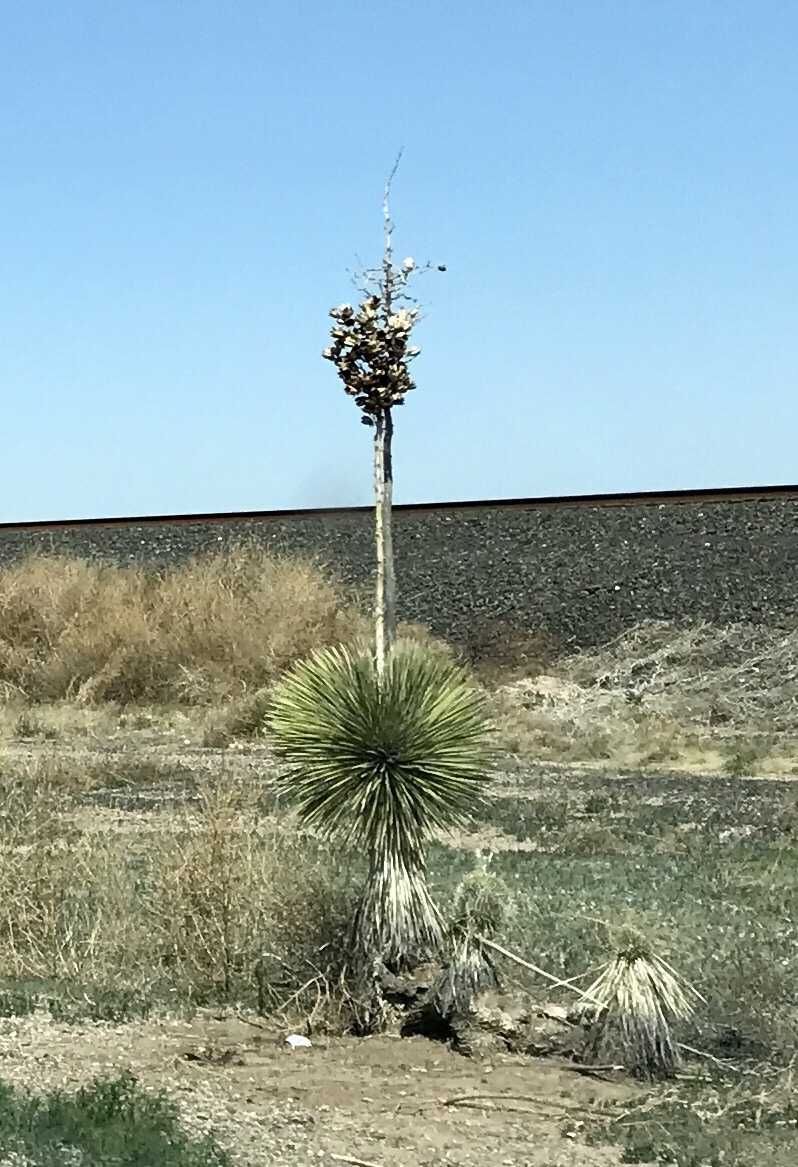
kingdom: Plantae
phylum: Tracheophyta
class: Liliopsida
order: Asparagales
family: Asparagaceae
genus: Yucca
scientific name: Yucca elata
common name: Palmella
